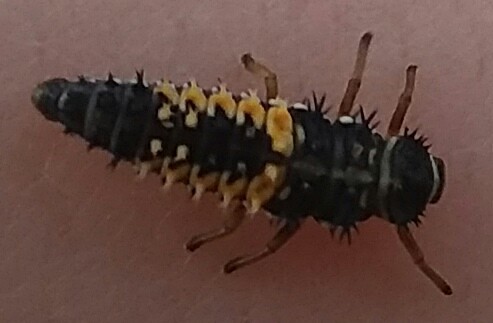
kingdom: Animalia
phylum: Arthropoda
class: Insecta
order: Coleoptera
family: Coccinellidae
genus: Harmonia
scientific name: Harmonia axyridis
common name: Harlequin ladybird
